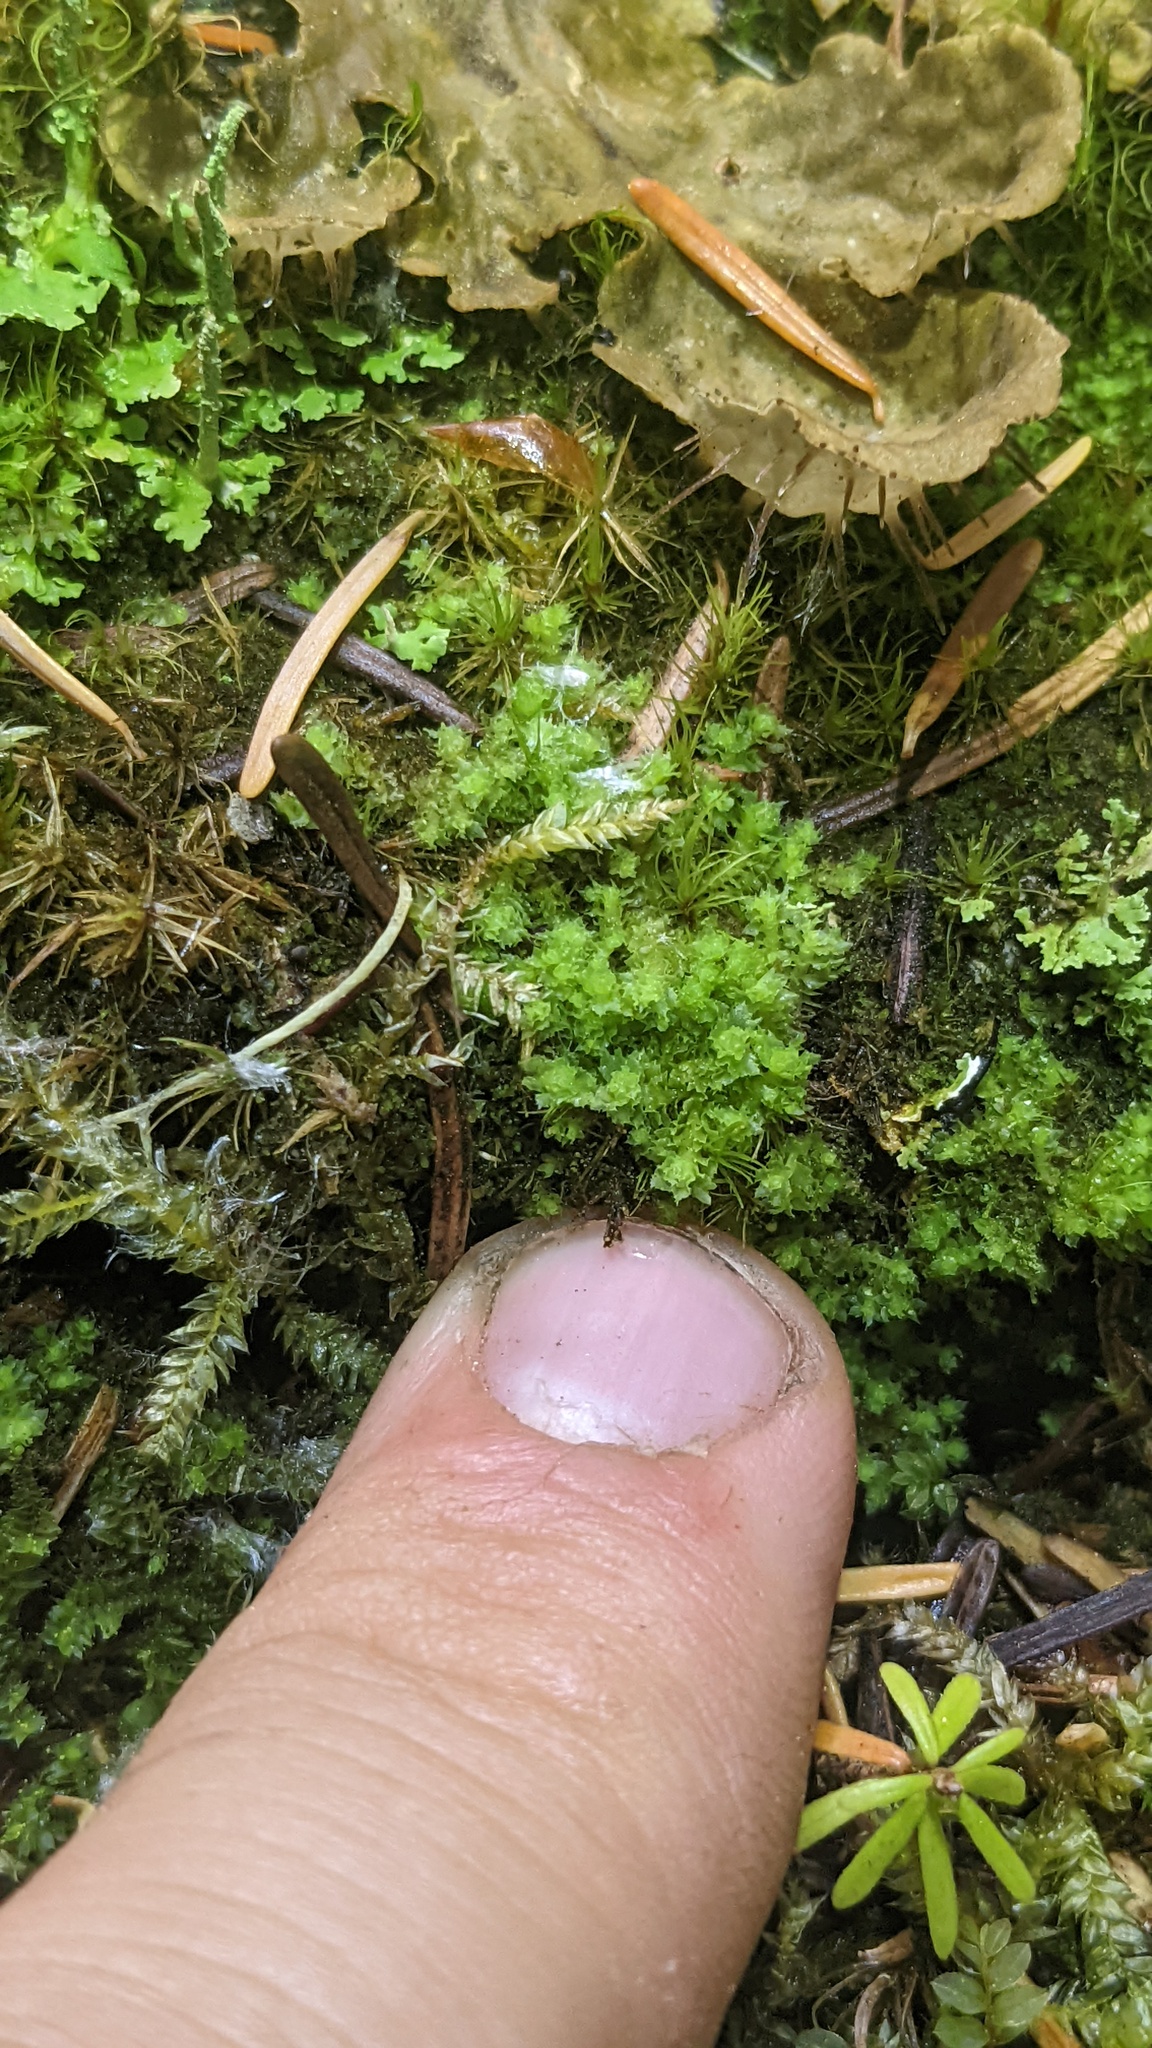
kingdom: Plantae
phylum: Marchantiophyta
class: Jungermanniopsida
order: Jungermanniales
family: Scapaniaceae
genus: Schistochilopsis
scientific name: Schistochilopsis incisa
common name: Jagged notchwort
